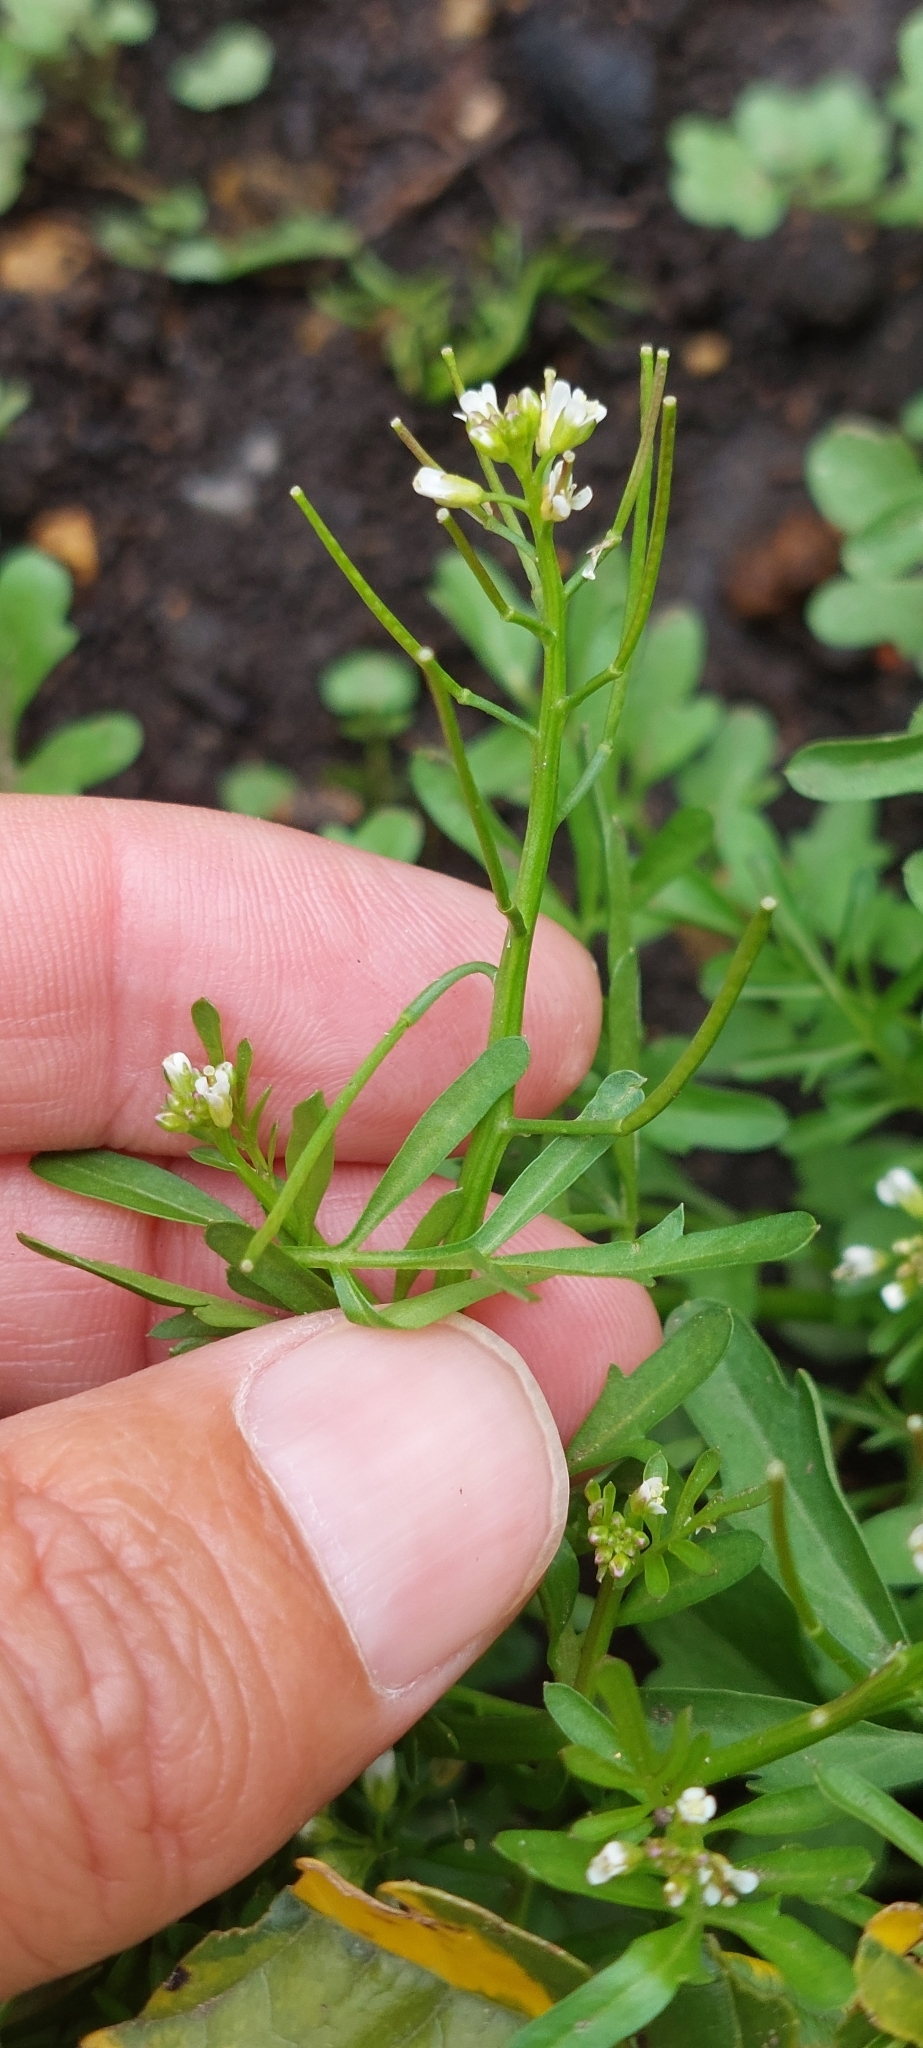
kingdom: Plantae
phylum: Tracheophyta
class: Magnoliopsida
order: Brassicales
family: Brassicaceae
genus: Cardamine
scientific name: Cardamine occulta
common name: Asian wavy bittercress
